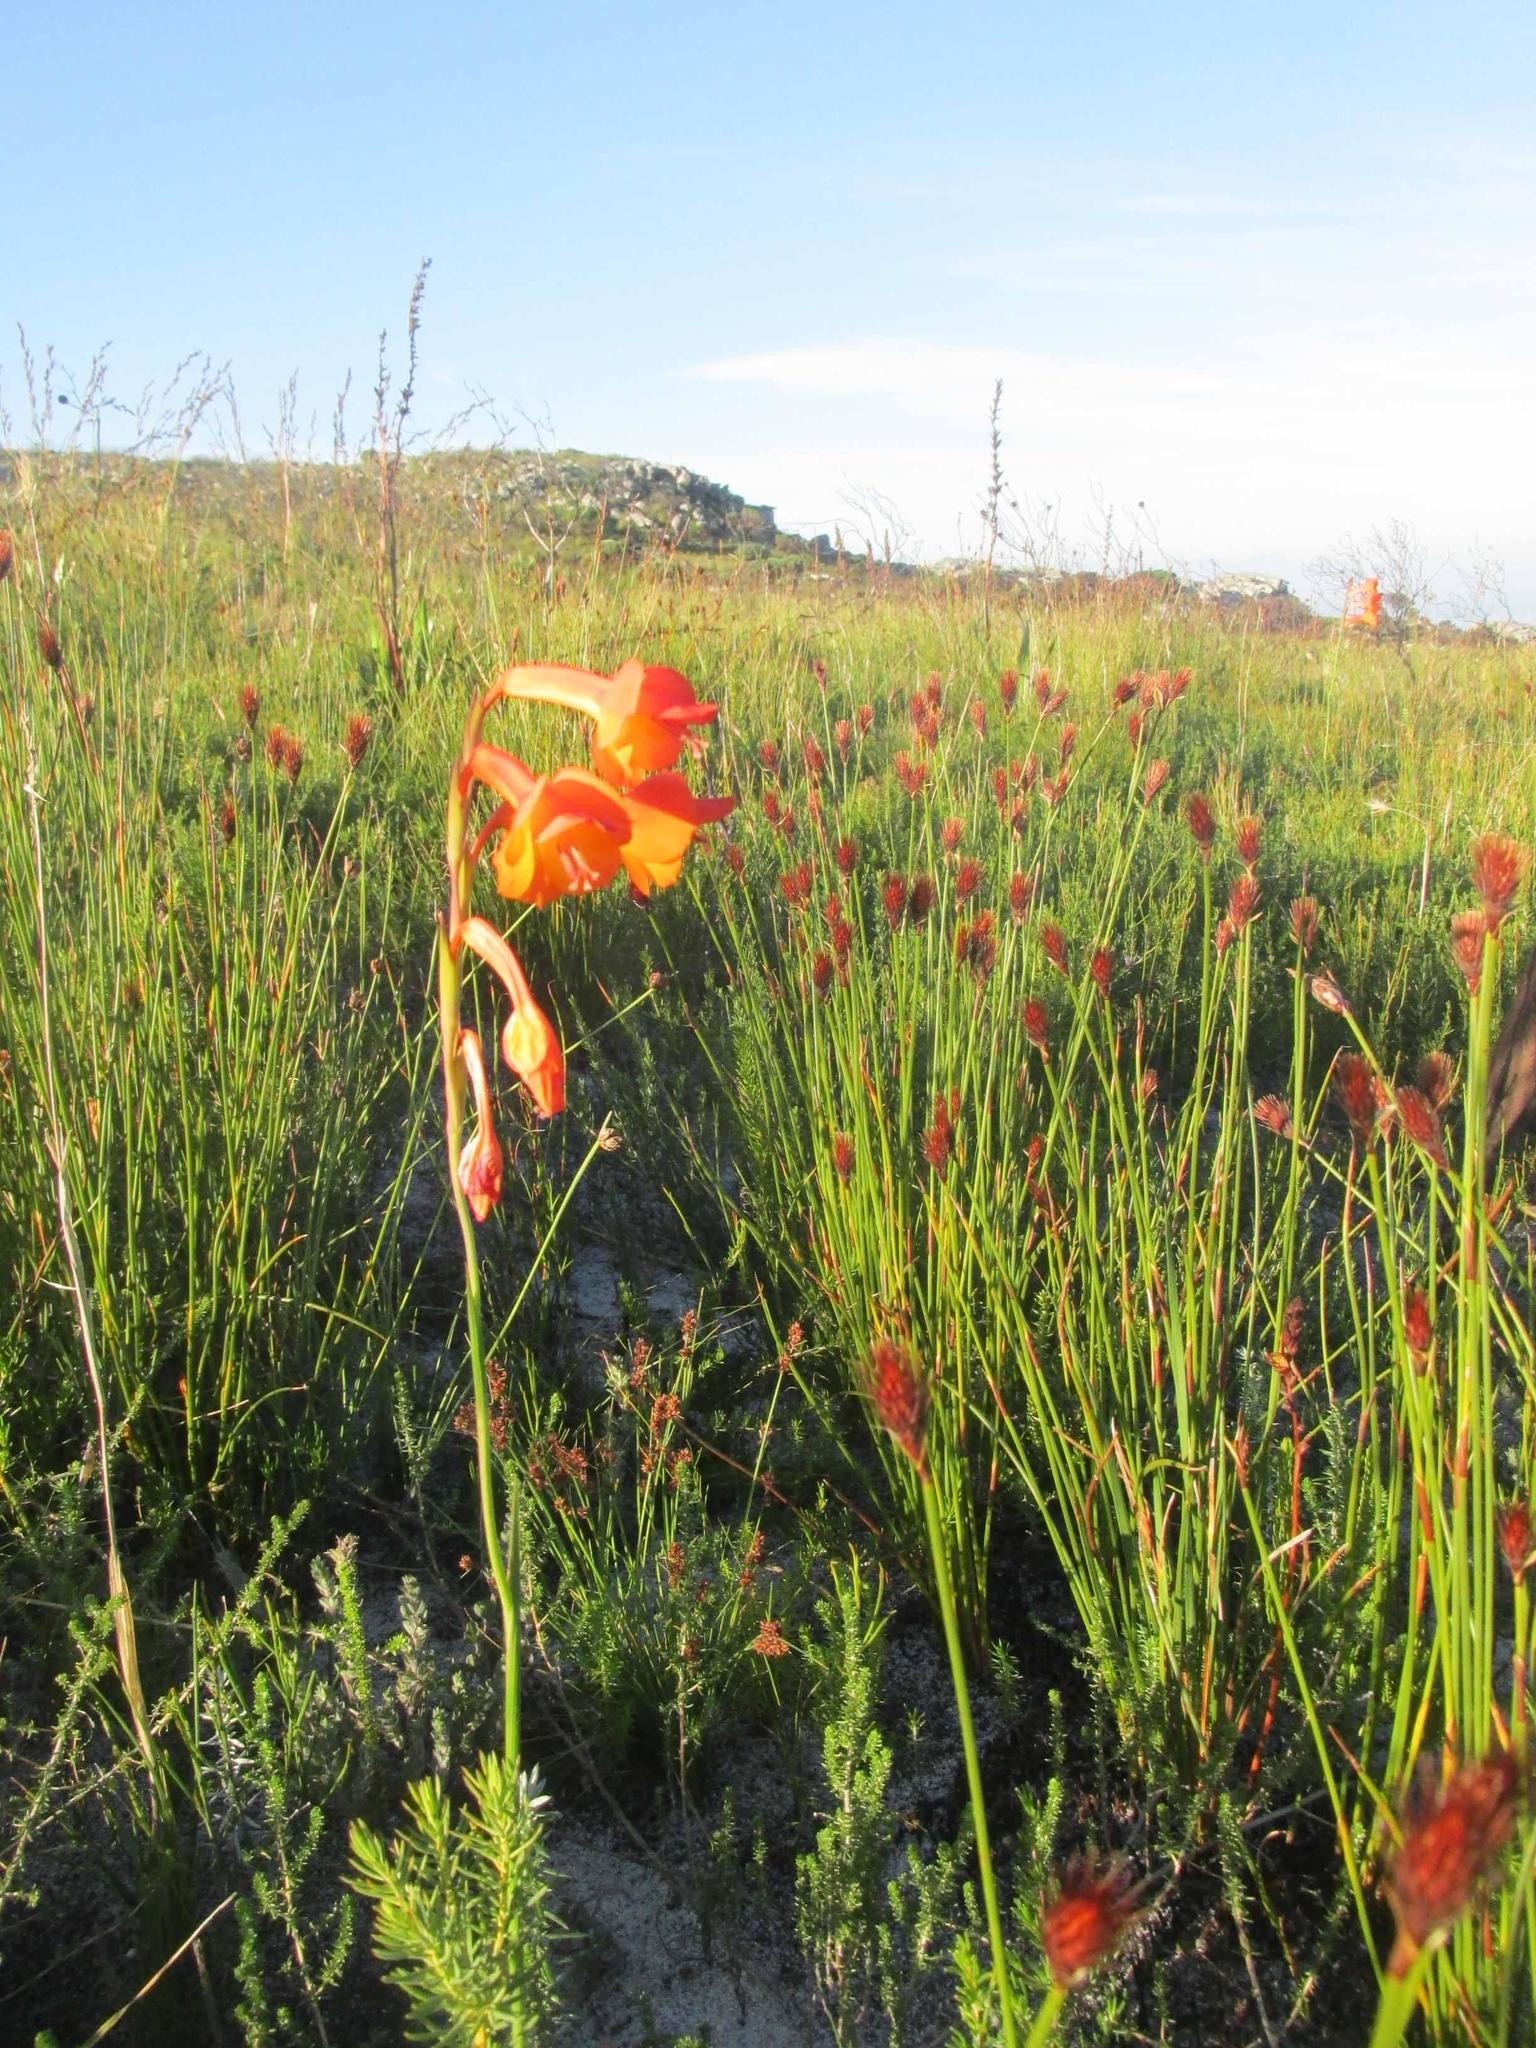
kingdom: Plantae
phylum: Tracheophyta
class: Liliopsida
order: Asparagales
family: Iridaceae
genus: Gladiolus
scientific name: Gladiolus merianellus
